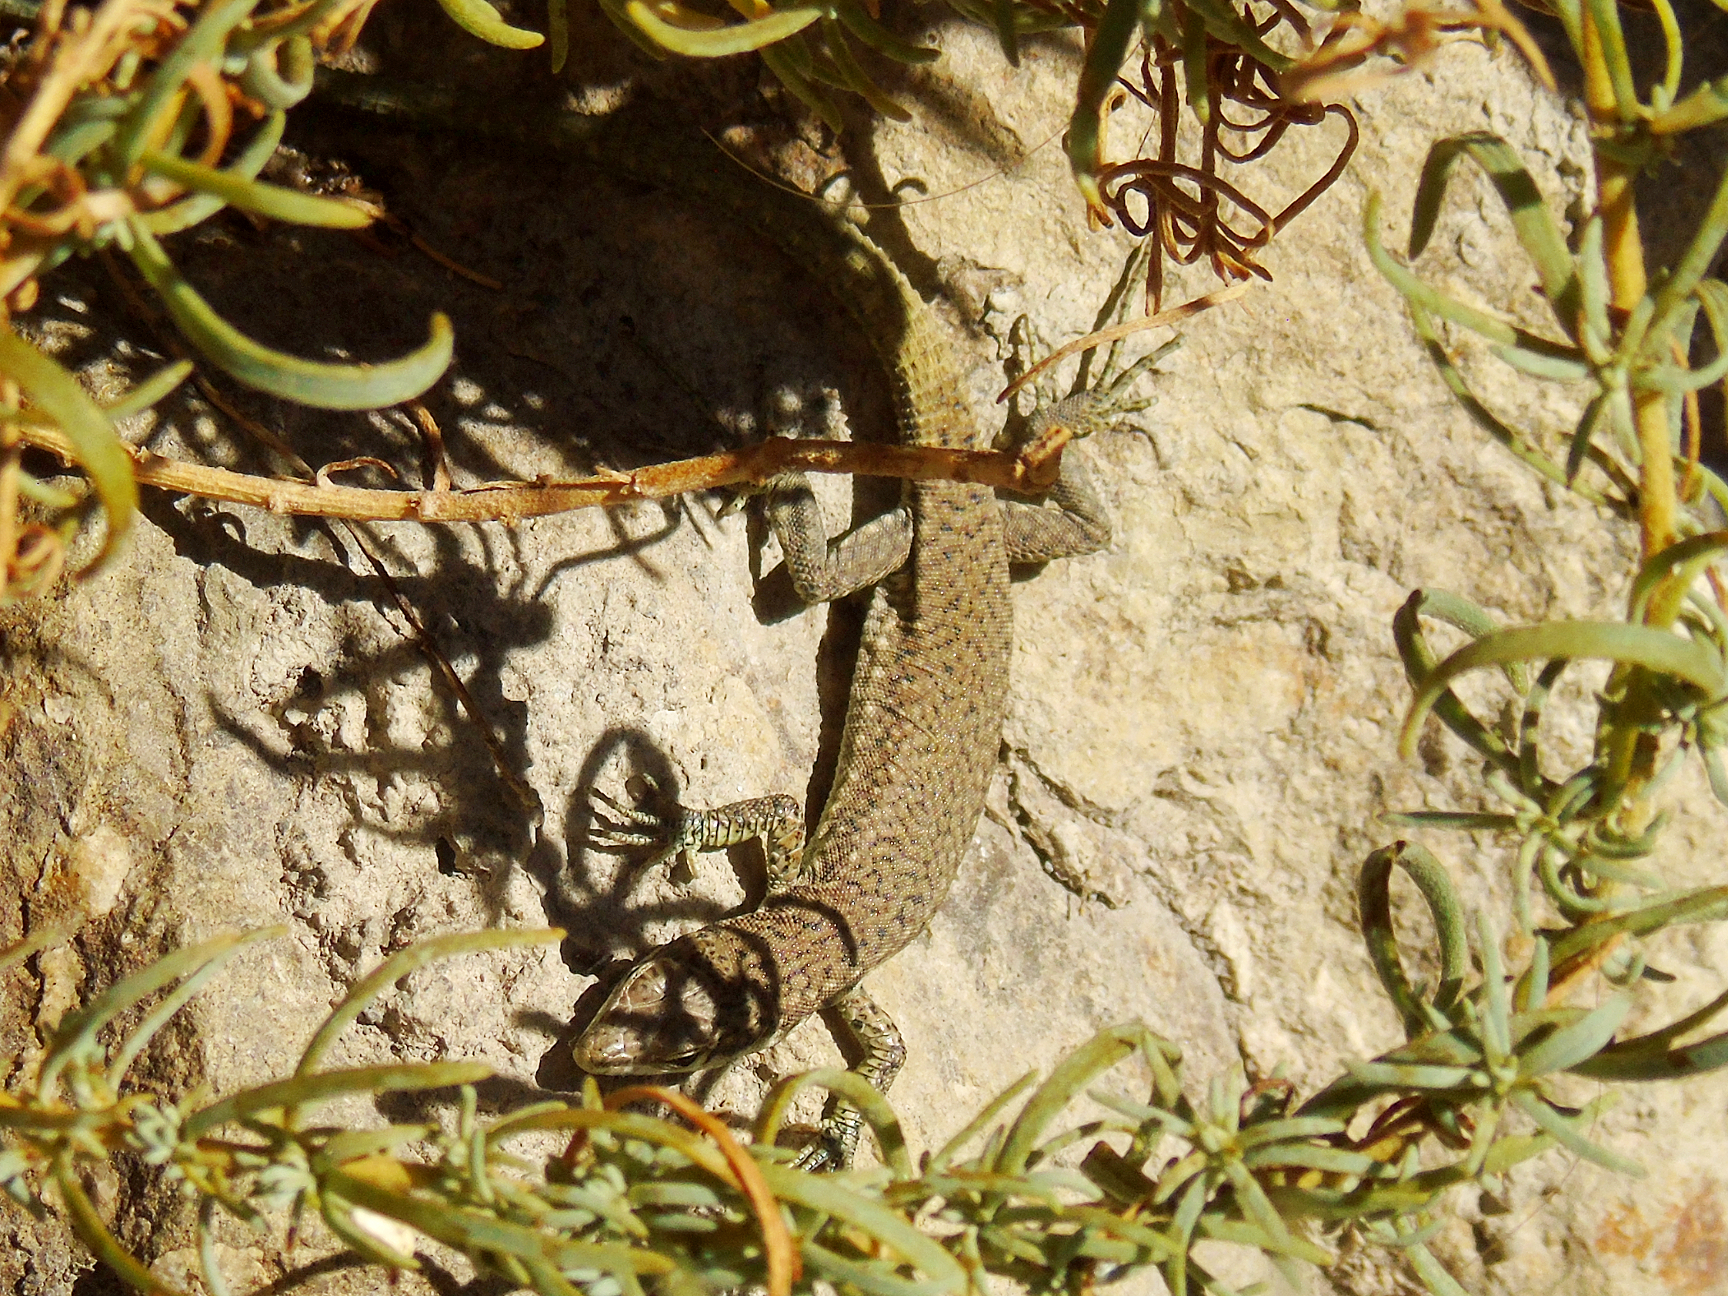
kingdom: Animalia
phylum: Chordata
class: Squamata
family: Lacertidae
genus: Darevskia
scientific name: Darevskia portschinskii
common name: River kura lizard
